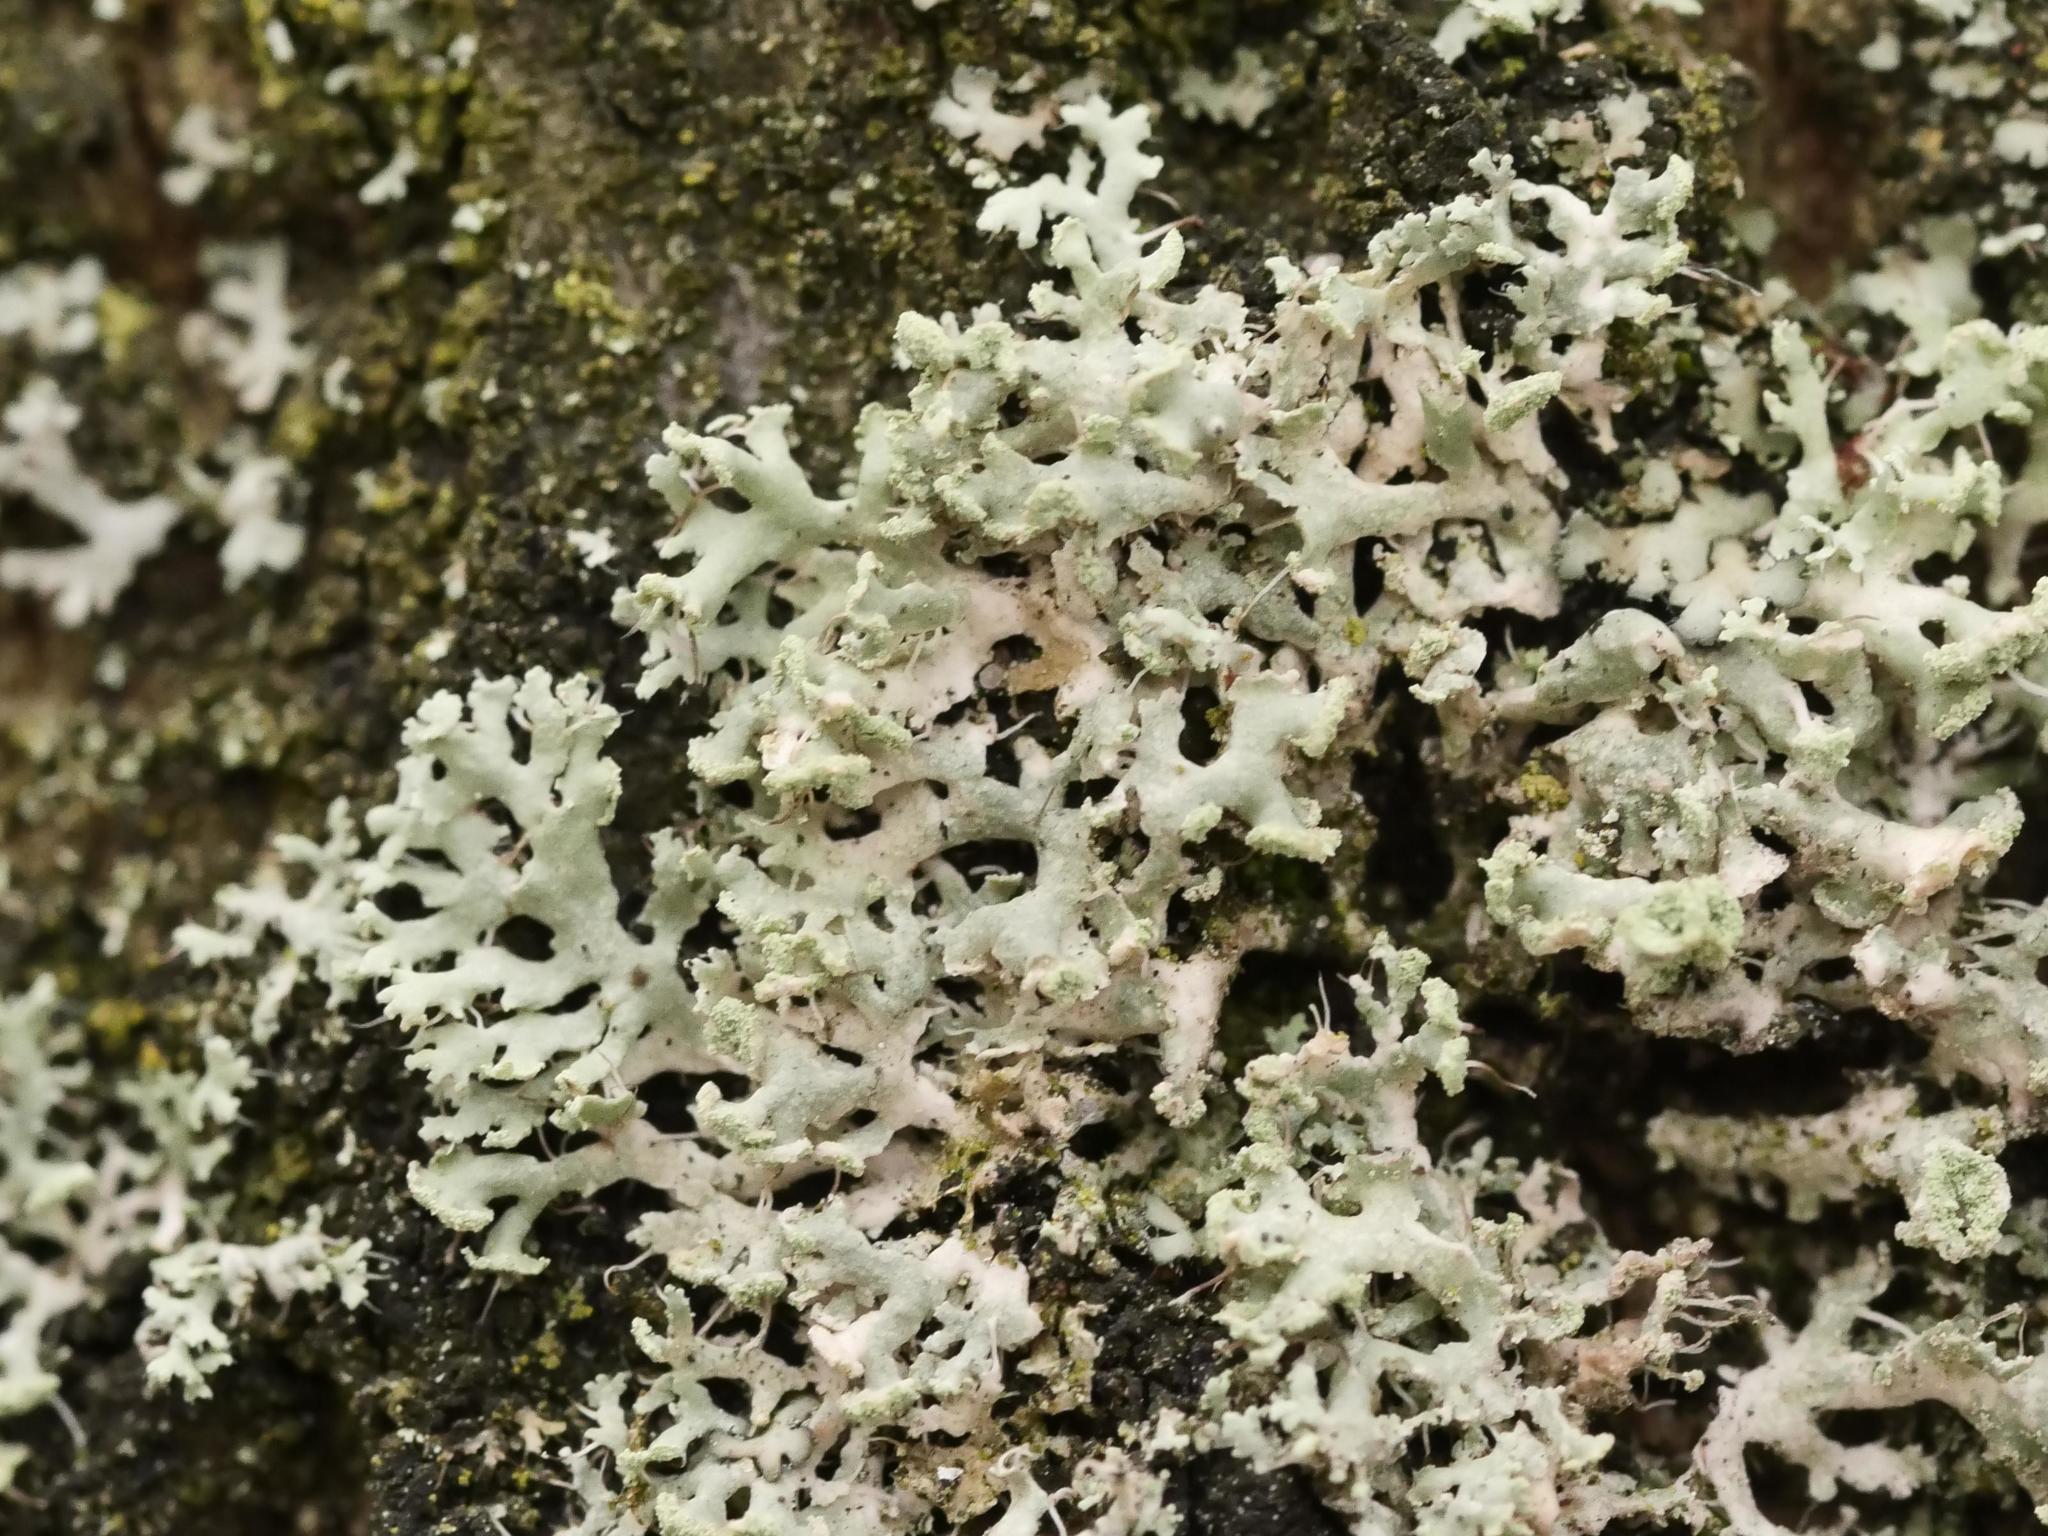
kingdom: Fungi
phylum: Ascomycota
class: Lecanoromycetes
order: Caliciales
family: Physciaceae
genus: Physcia
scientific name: Physcia tenella
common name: Fringed rosette lichen
